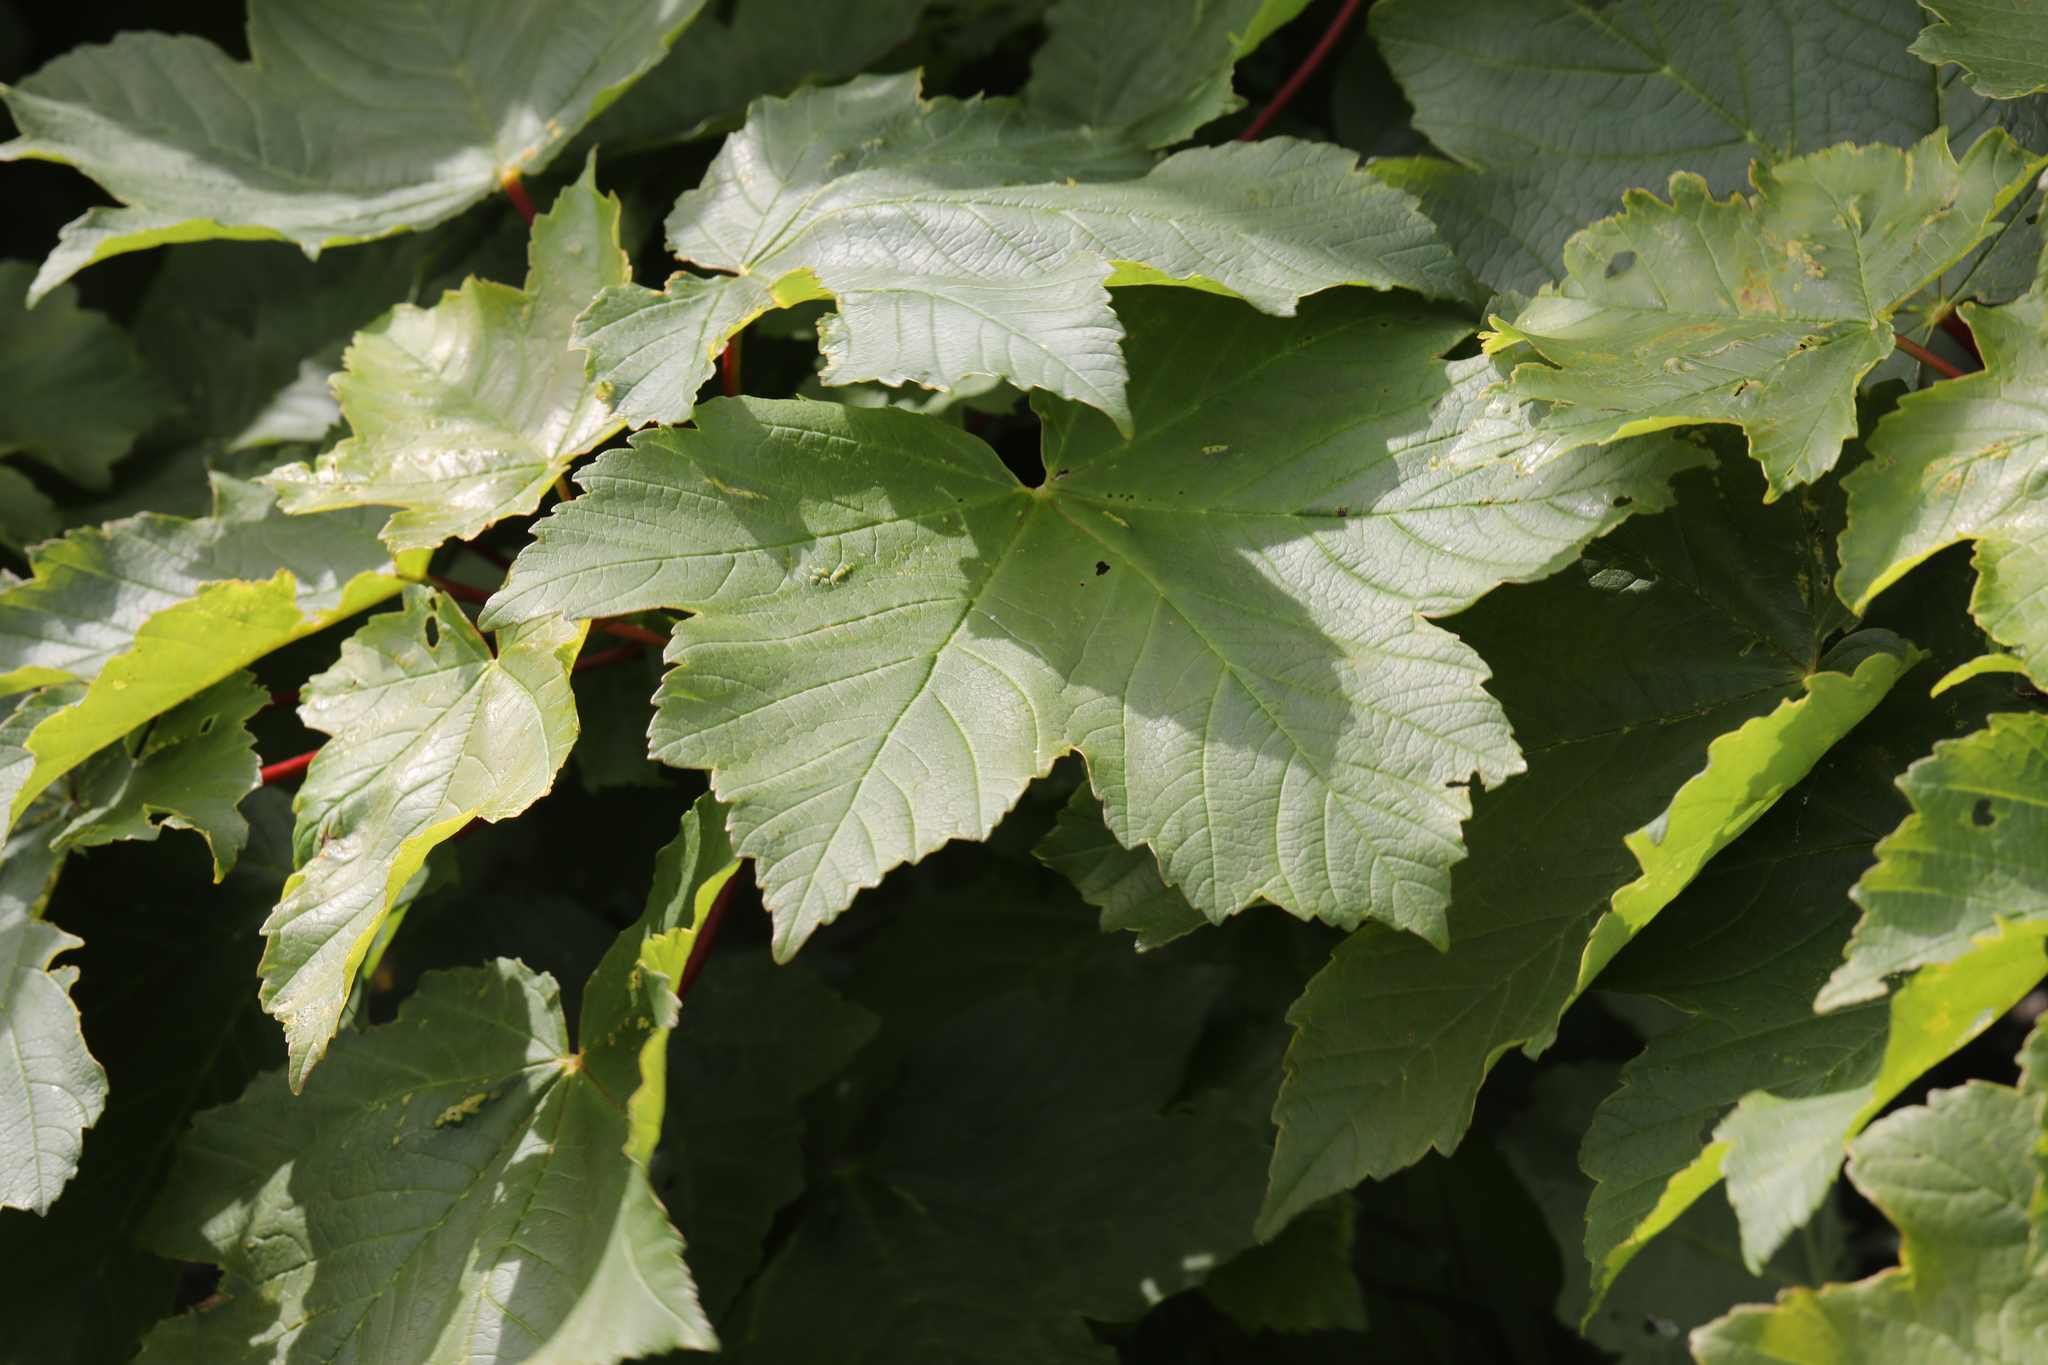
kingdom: Plantae
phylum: Tracheophyta
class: Magnoliopsida
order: Sapindales
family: Sapindaceae
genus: Acer
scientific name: Acer pseudoplatanus
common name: Sycamore
